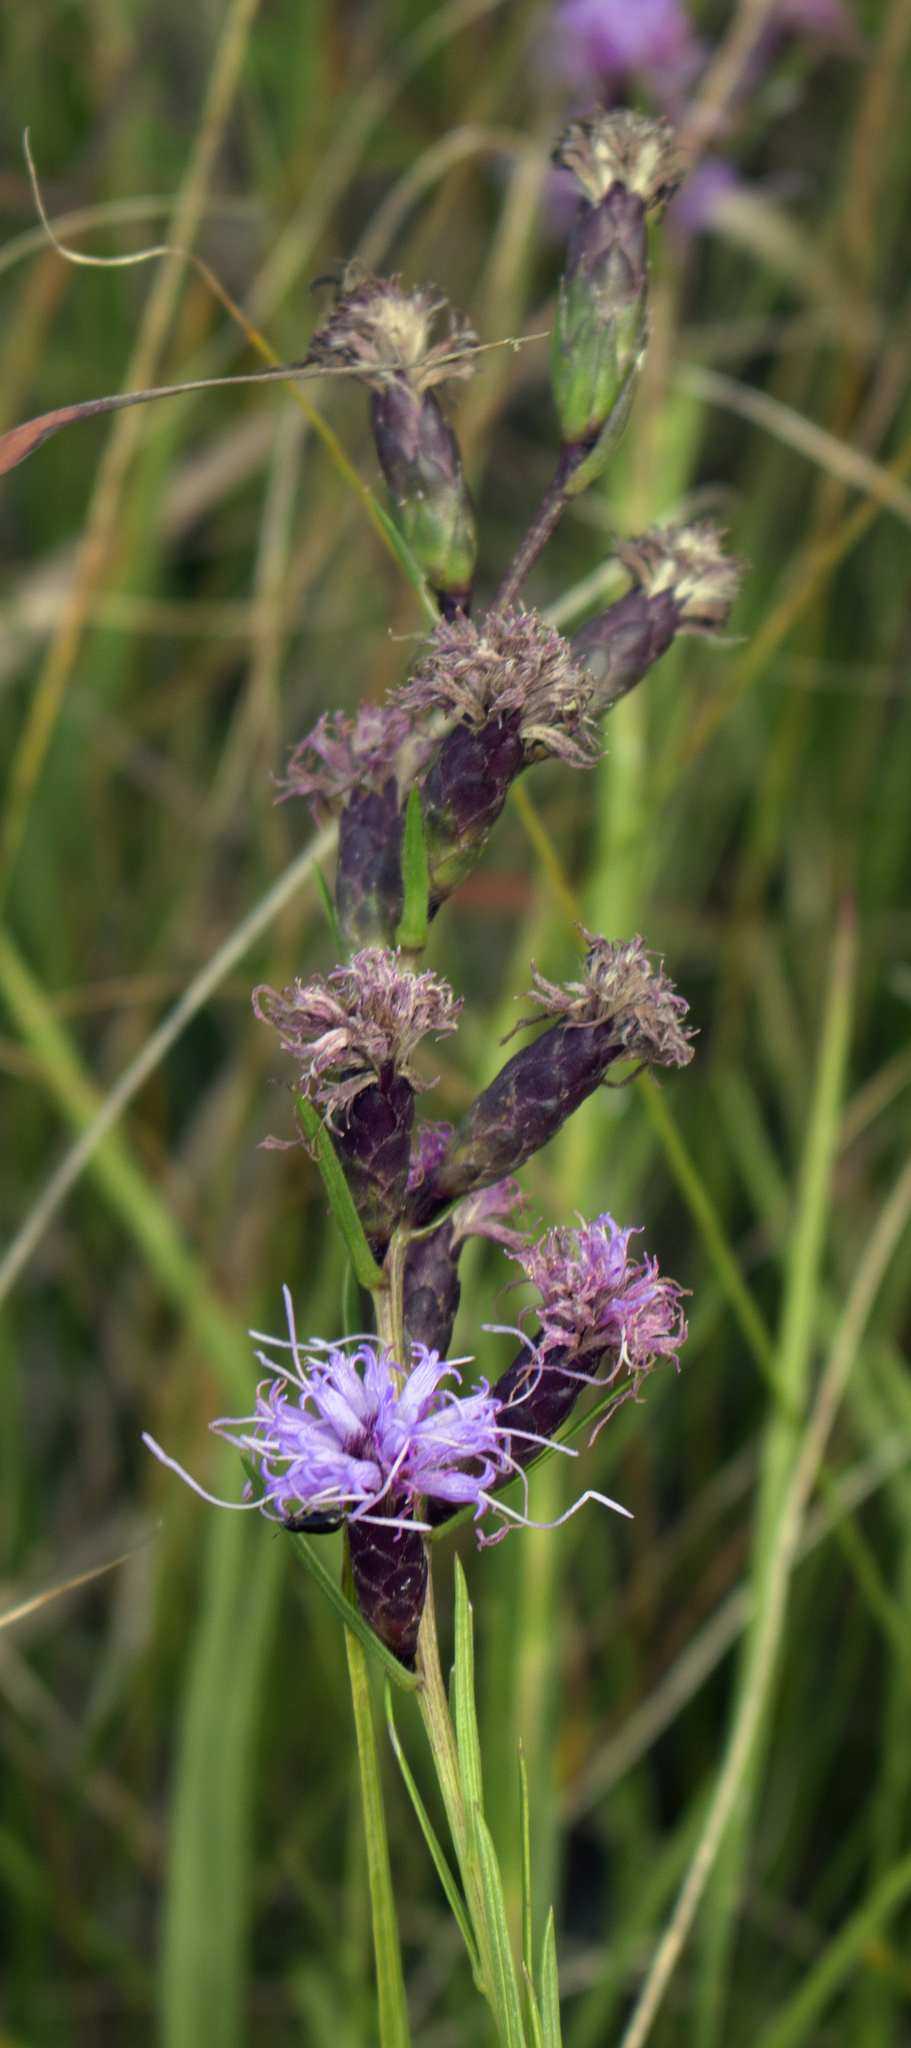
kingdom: Plantae
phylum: Tracheophyta
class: Magnoliopsida
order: Asterales
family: Asteraceae
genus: Liatris
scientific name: Liatris cylindracea
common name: Few-head blazingstar
